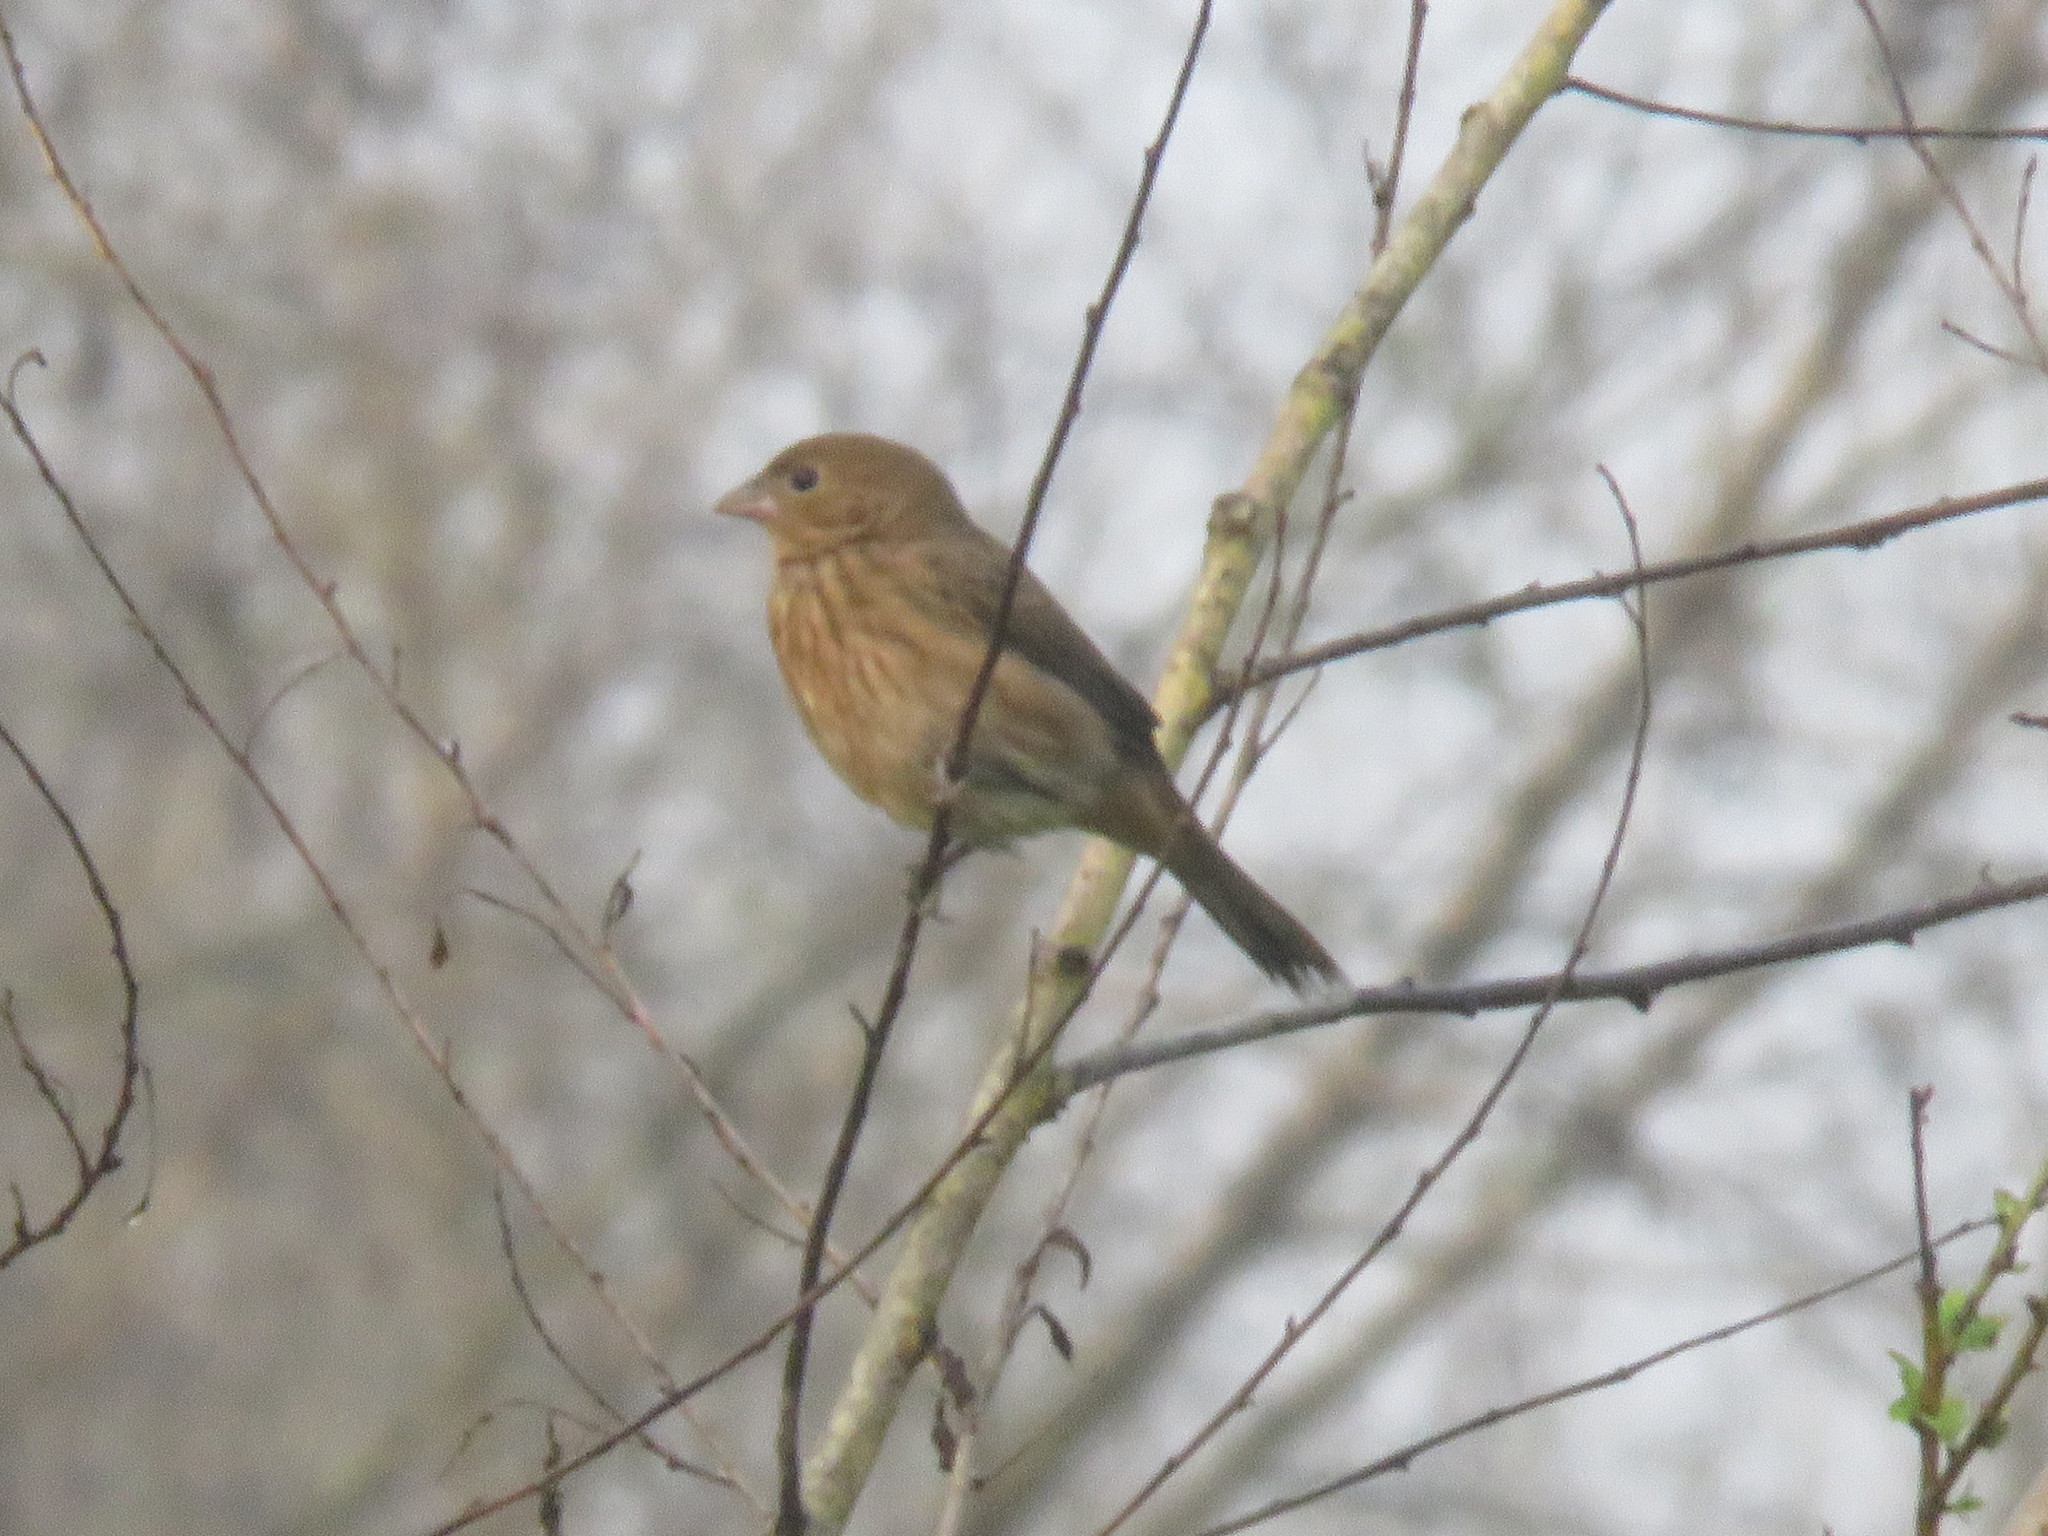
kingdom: Animalia
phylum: Chordata
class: Aves
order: Passeriformes
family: Thraupidae
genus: Volatinia
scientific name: Volatinia jacarina
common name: Blue-black grassquit
